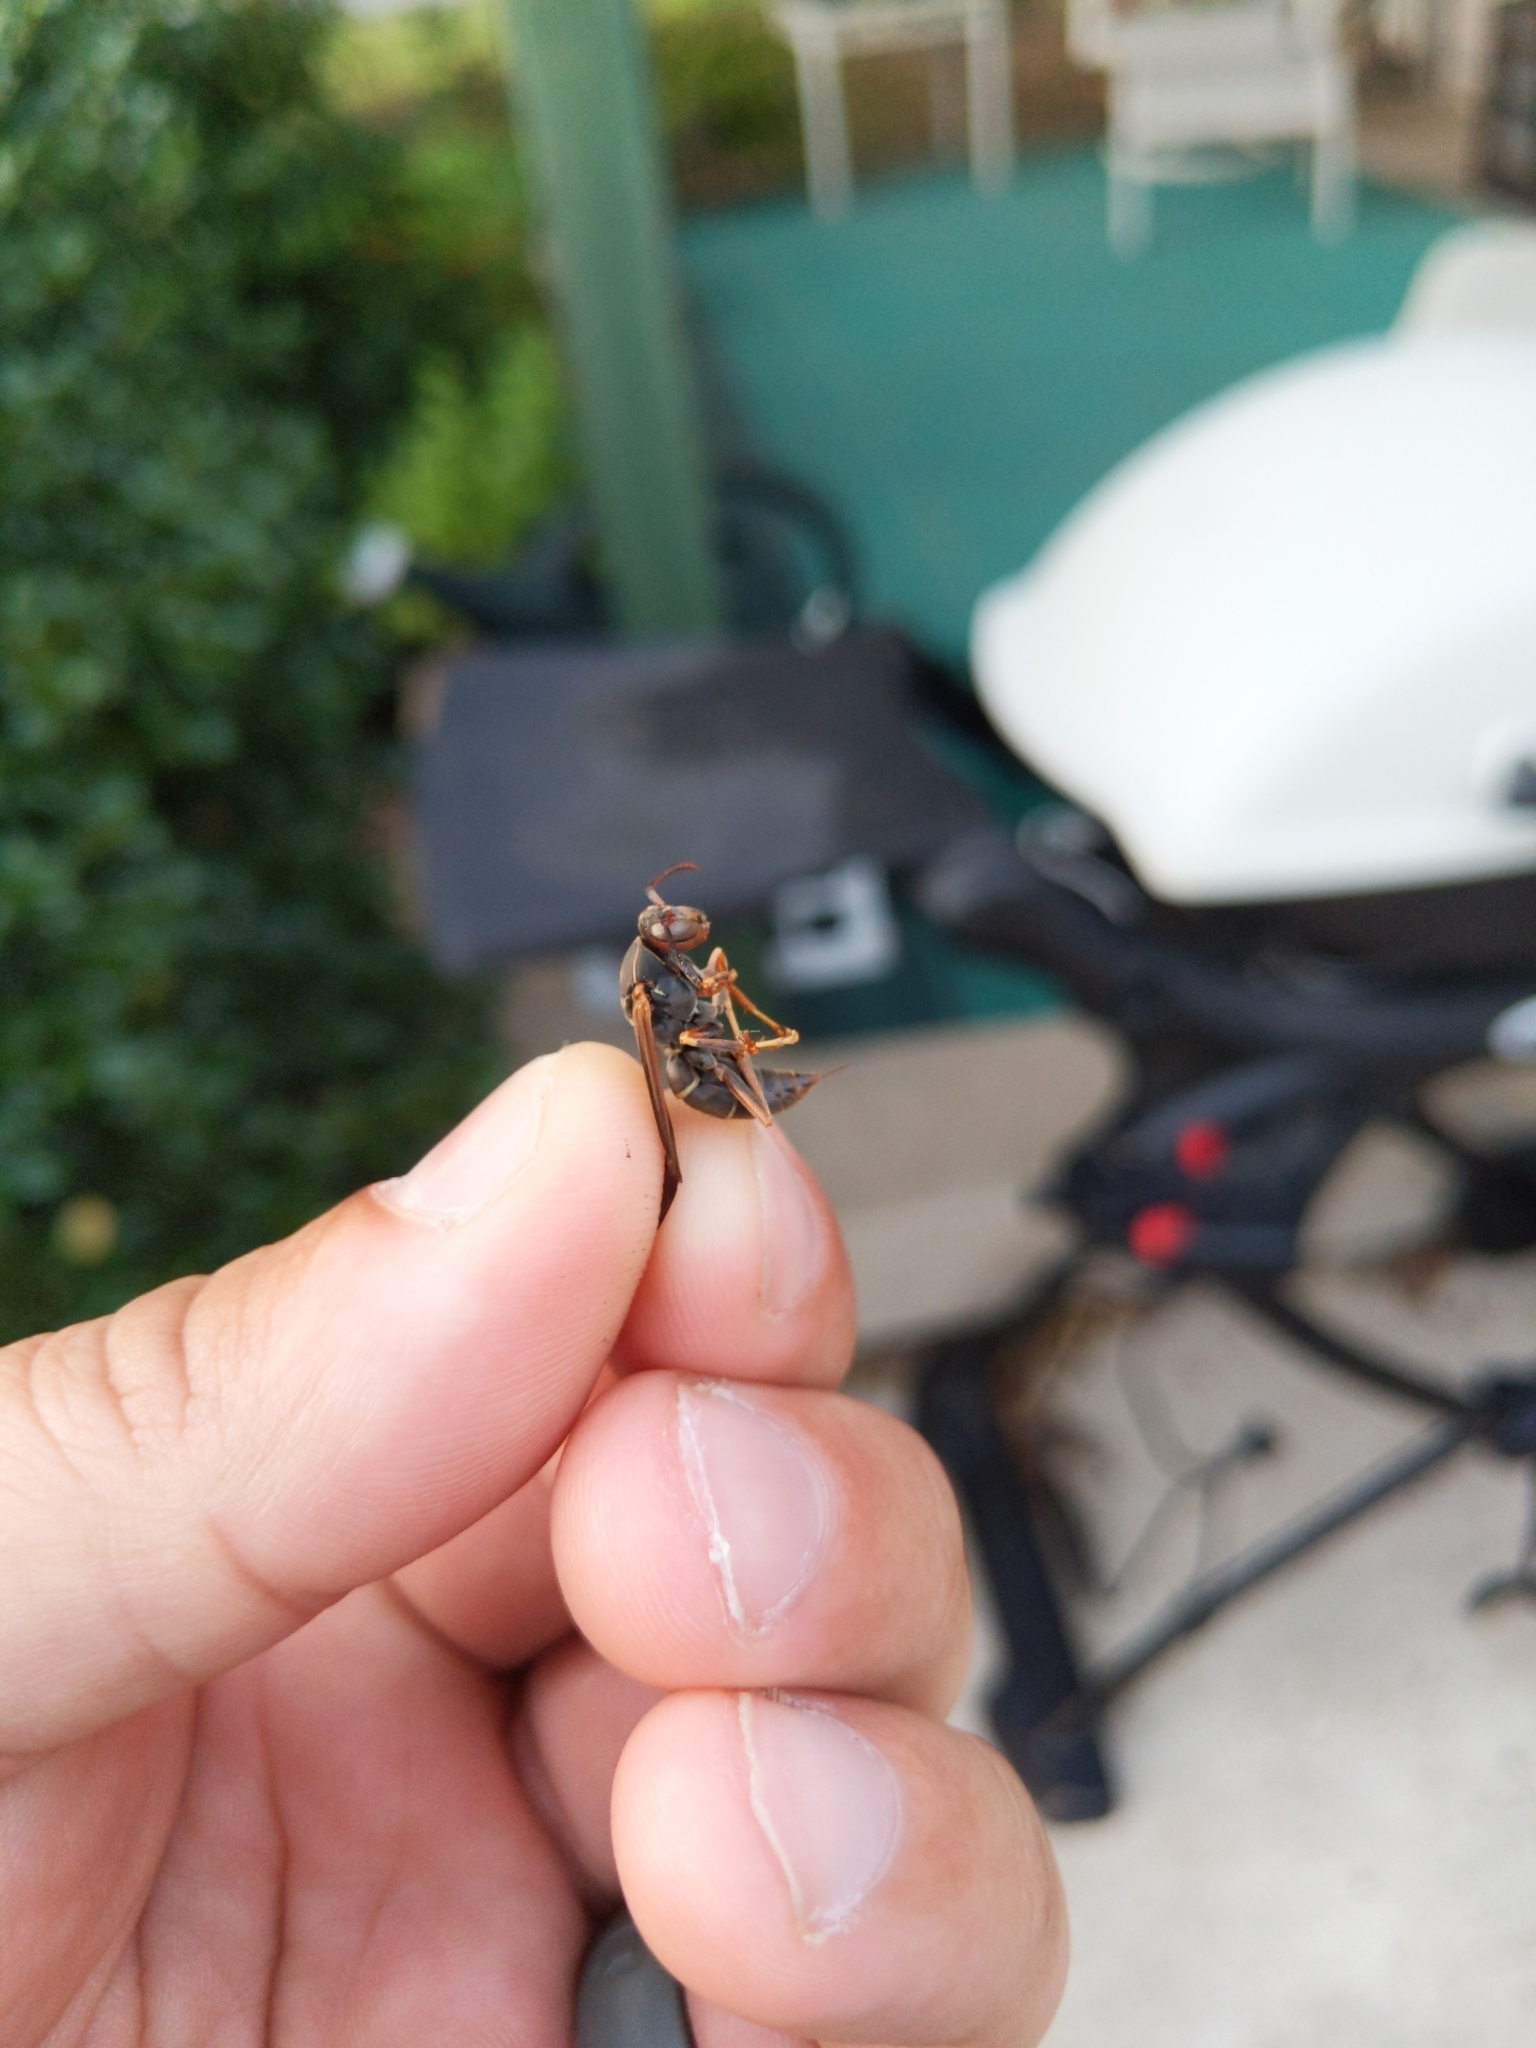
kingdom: Animalia
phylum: Arthropoda
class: Insecta
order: Hymenoptera
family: Eumenidae
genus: Polistes
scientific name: Polistes fuscatus
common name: Dark paper wasp
